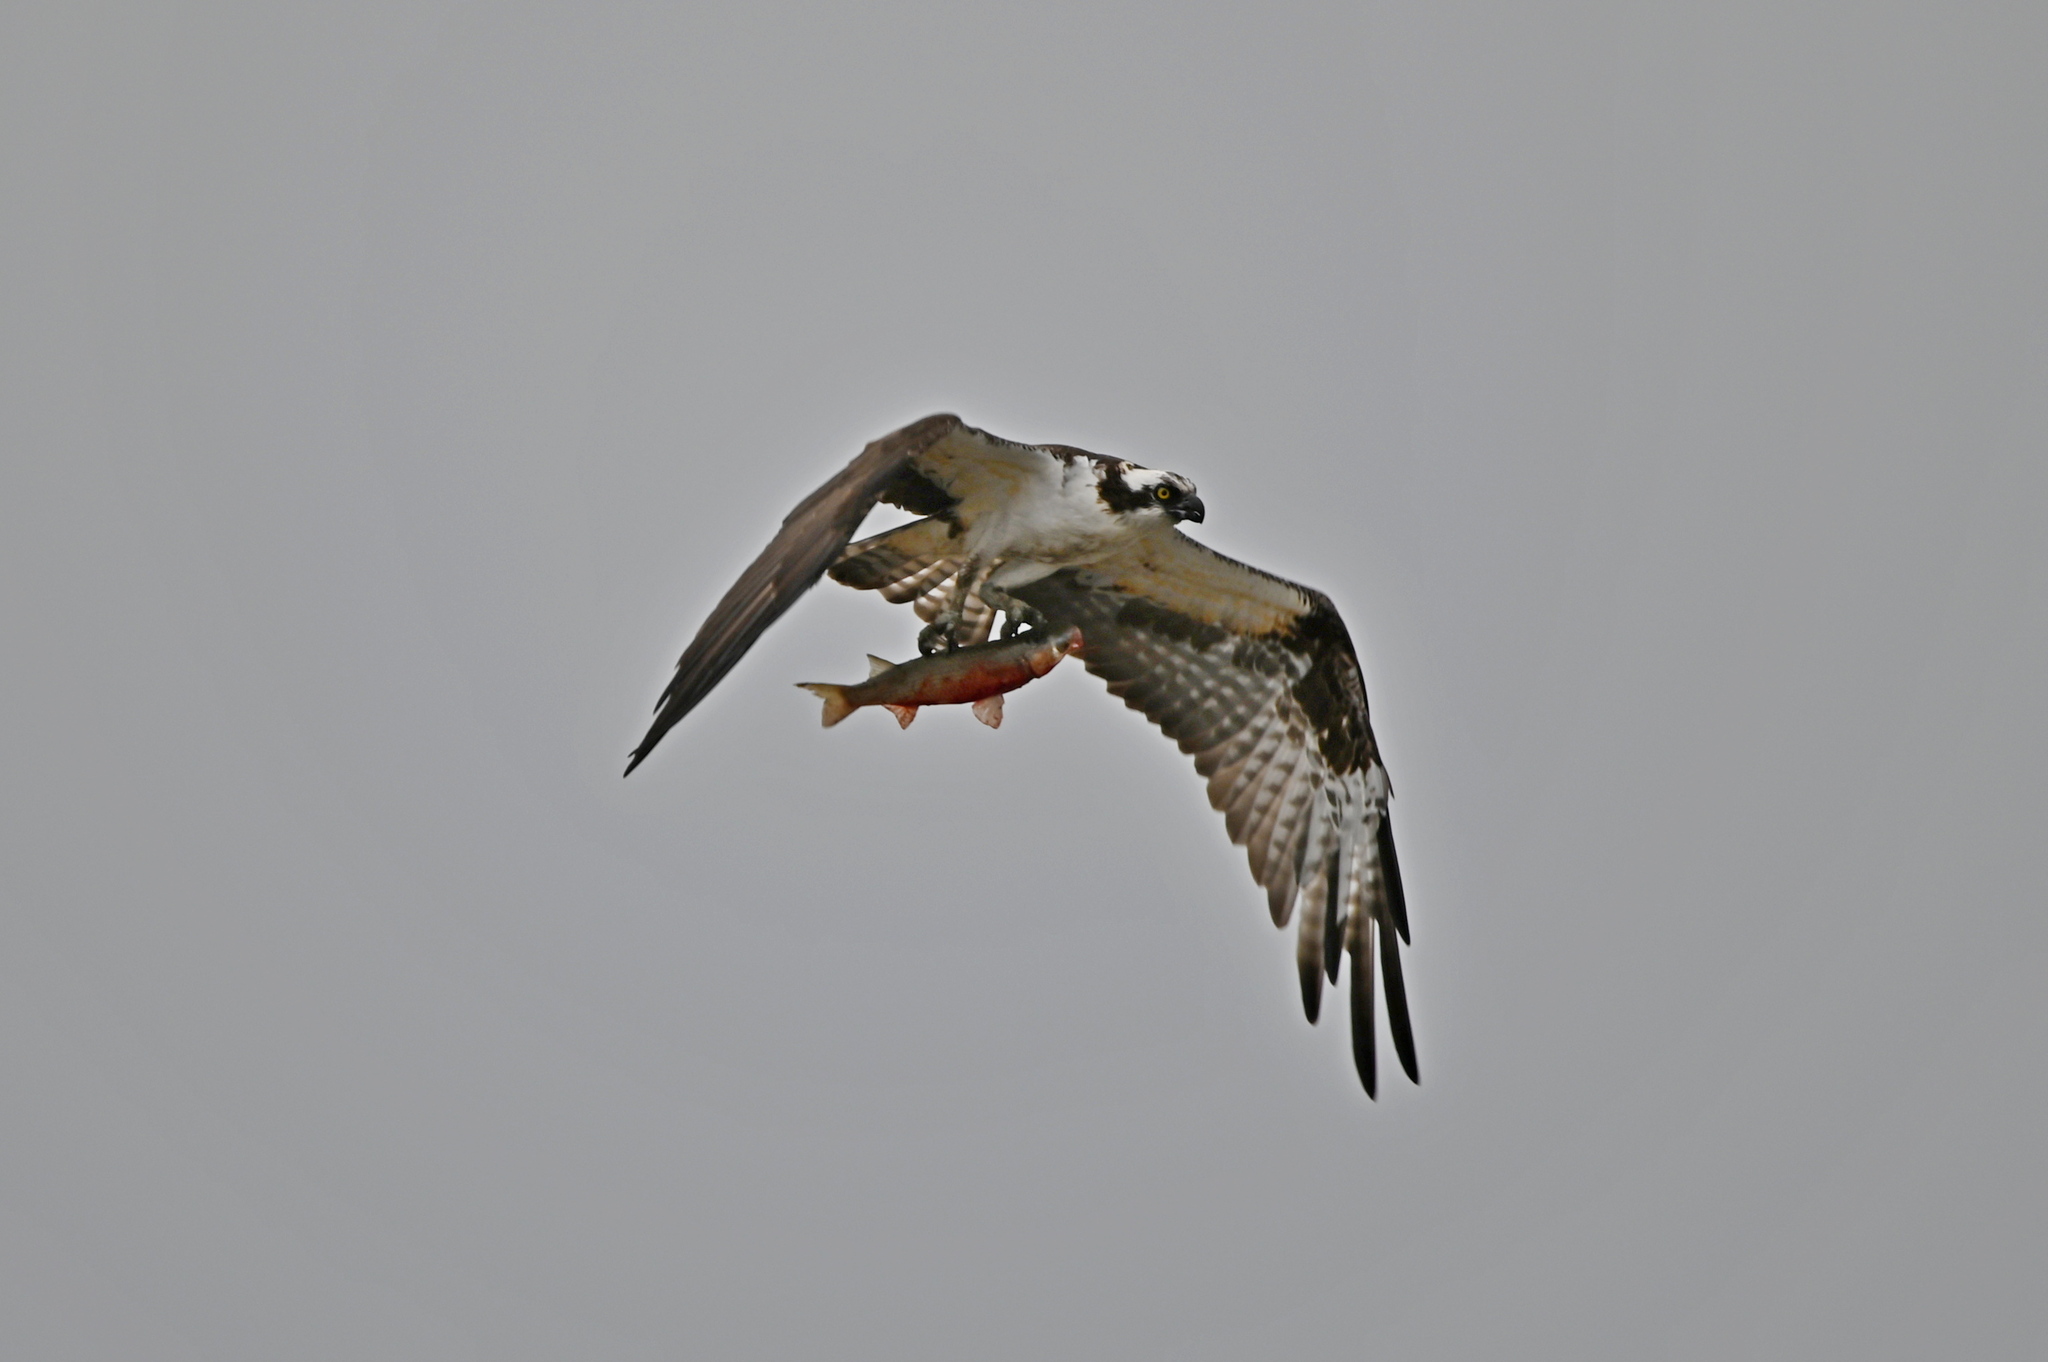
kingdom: Animalia
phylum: Chordata
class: Aves
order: Accipitriformes
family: Pandionidae
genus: Pandion
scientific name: Pandion haliaetus
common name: Osprey
